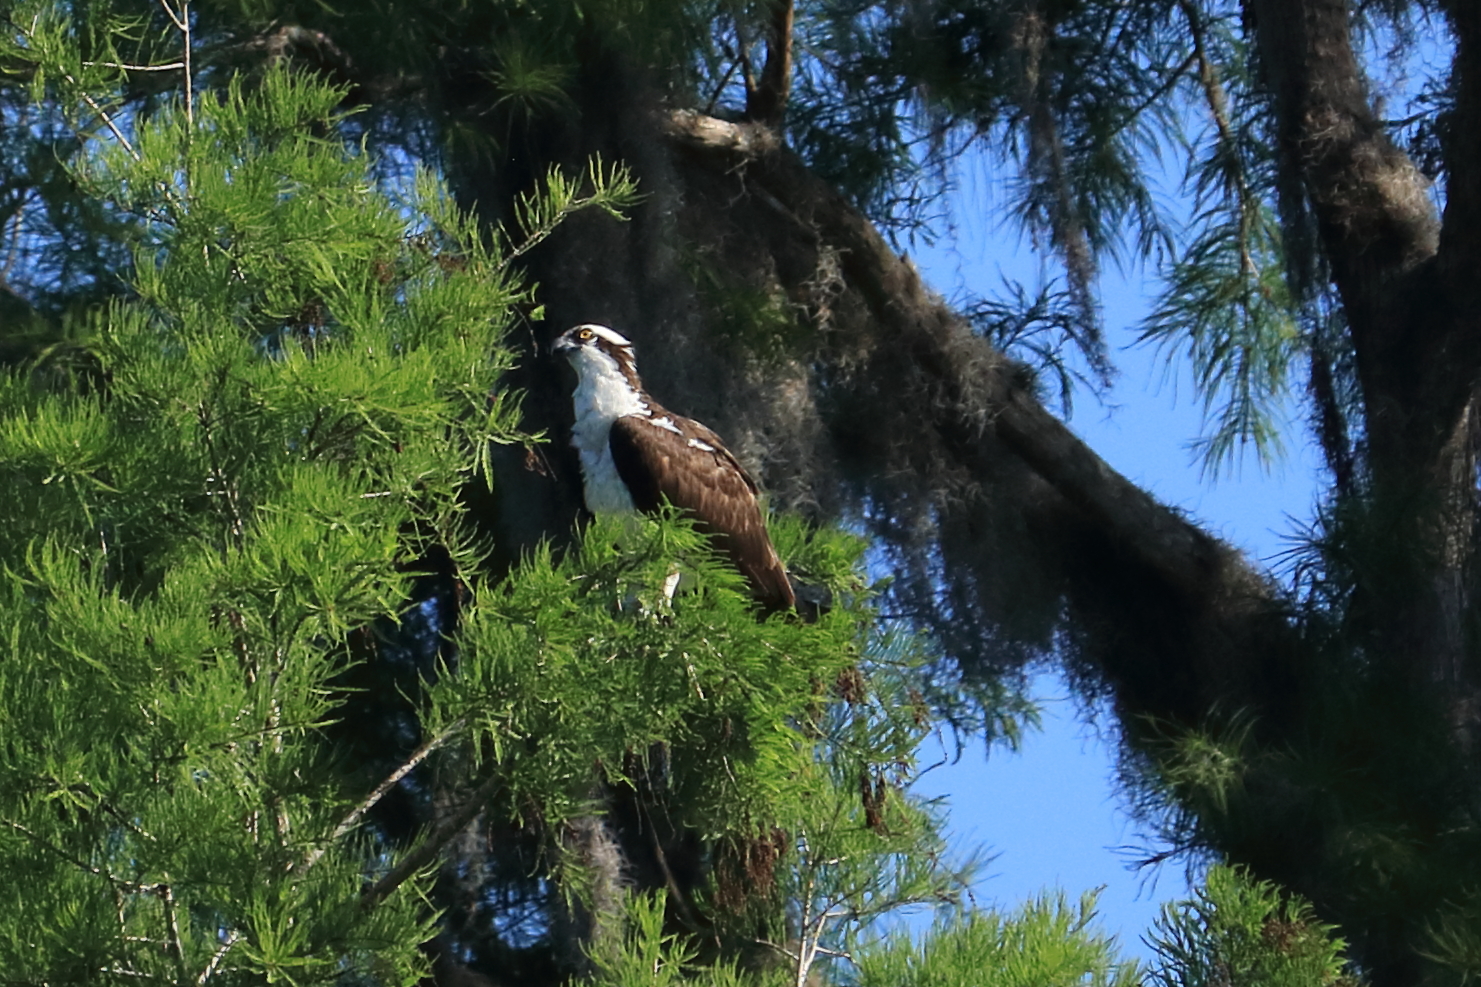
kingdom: Animalia
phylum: Chordata
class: Aves
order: Accipitriformes
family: Pandionidae
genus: Pandion
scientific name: Pandion haliaetus
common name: Osprey
